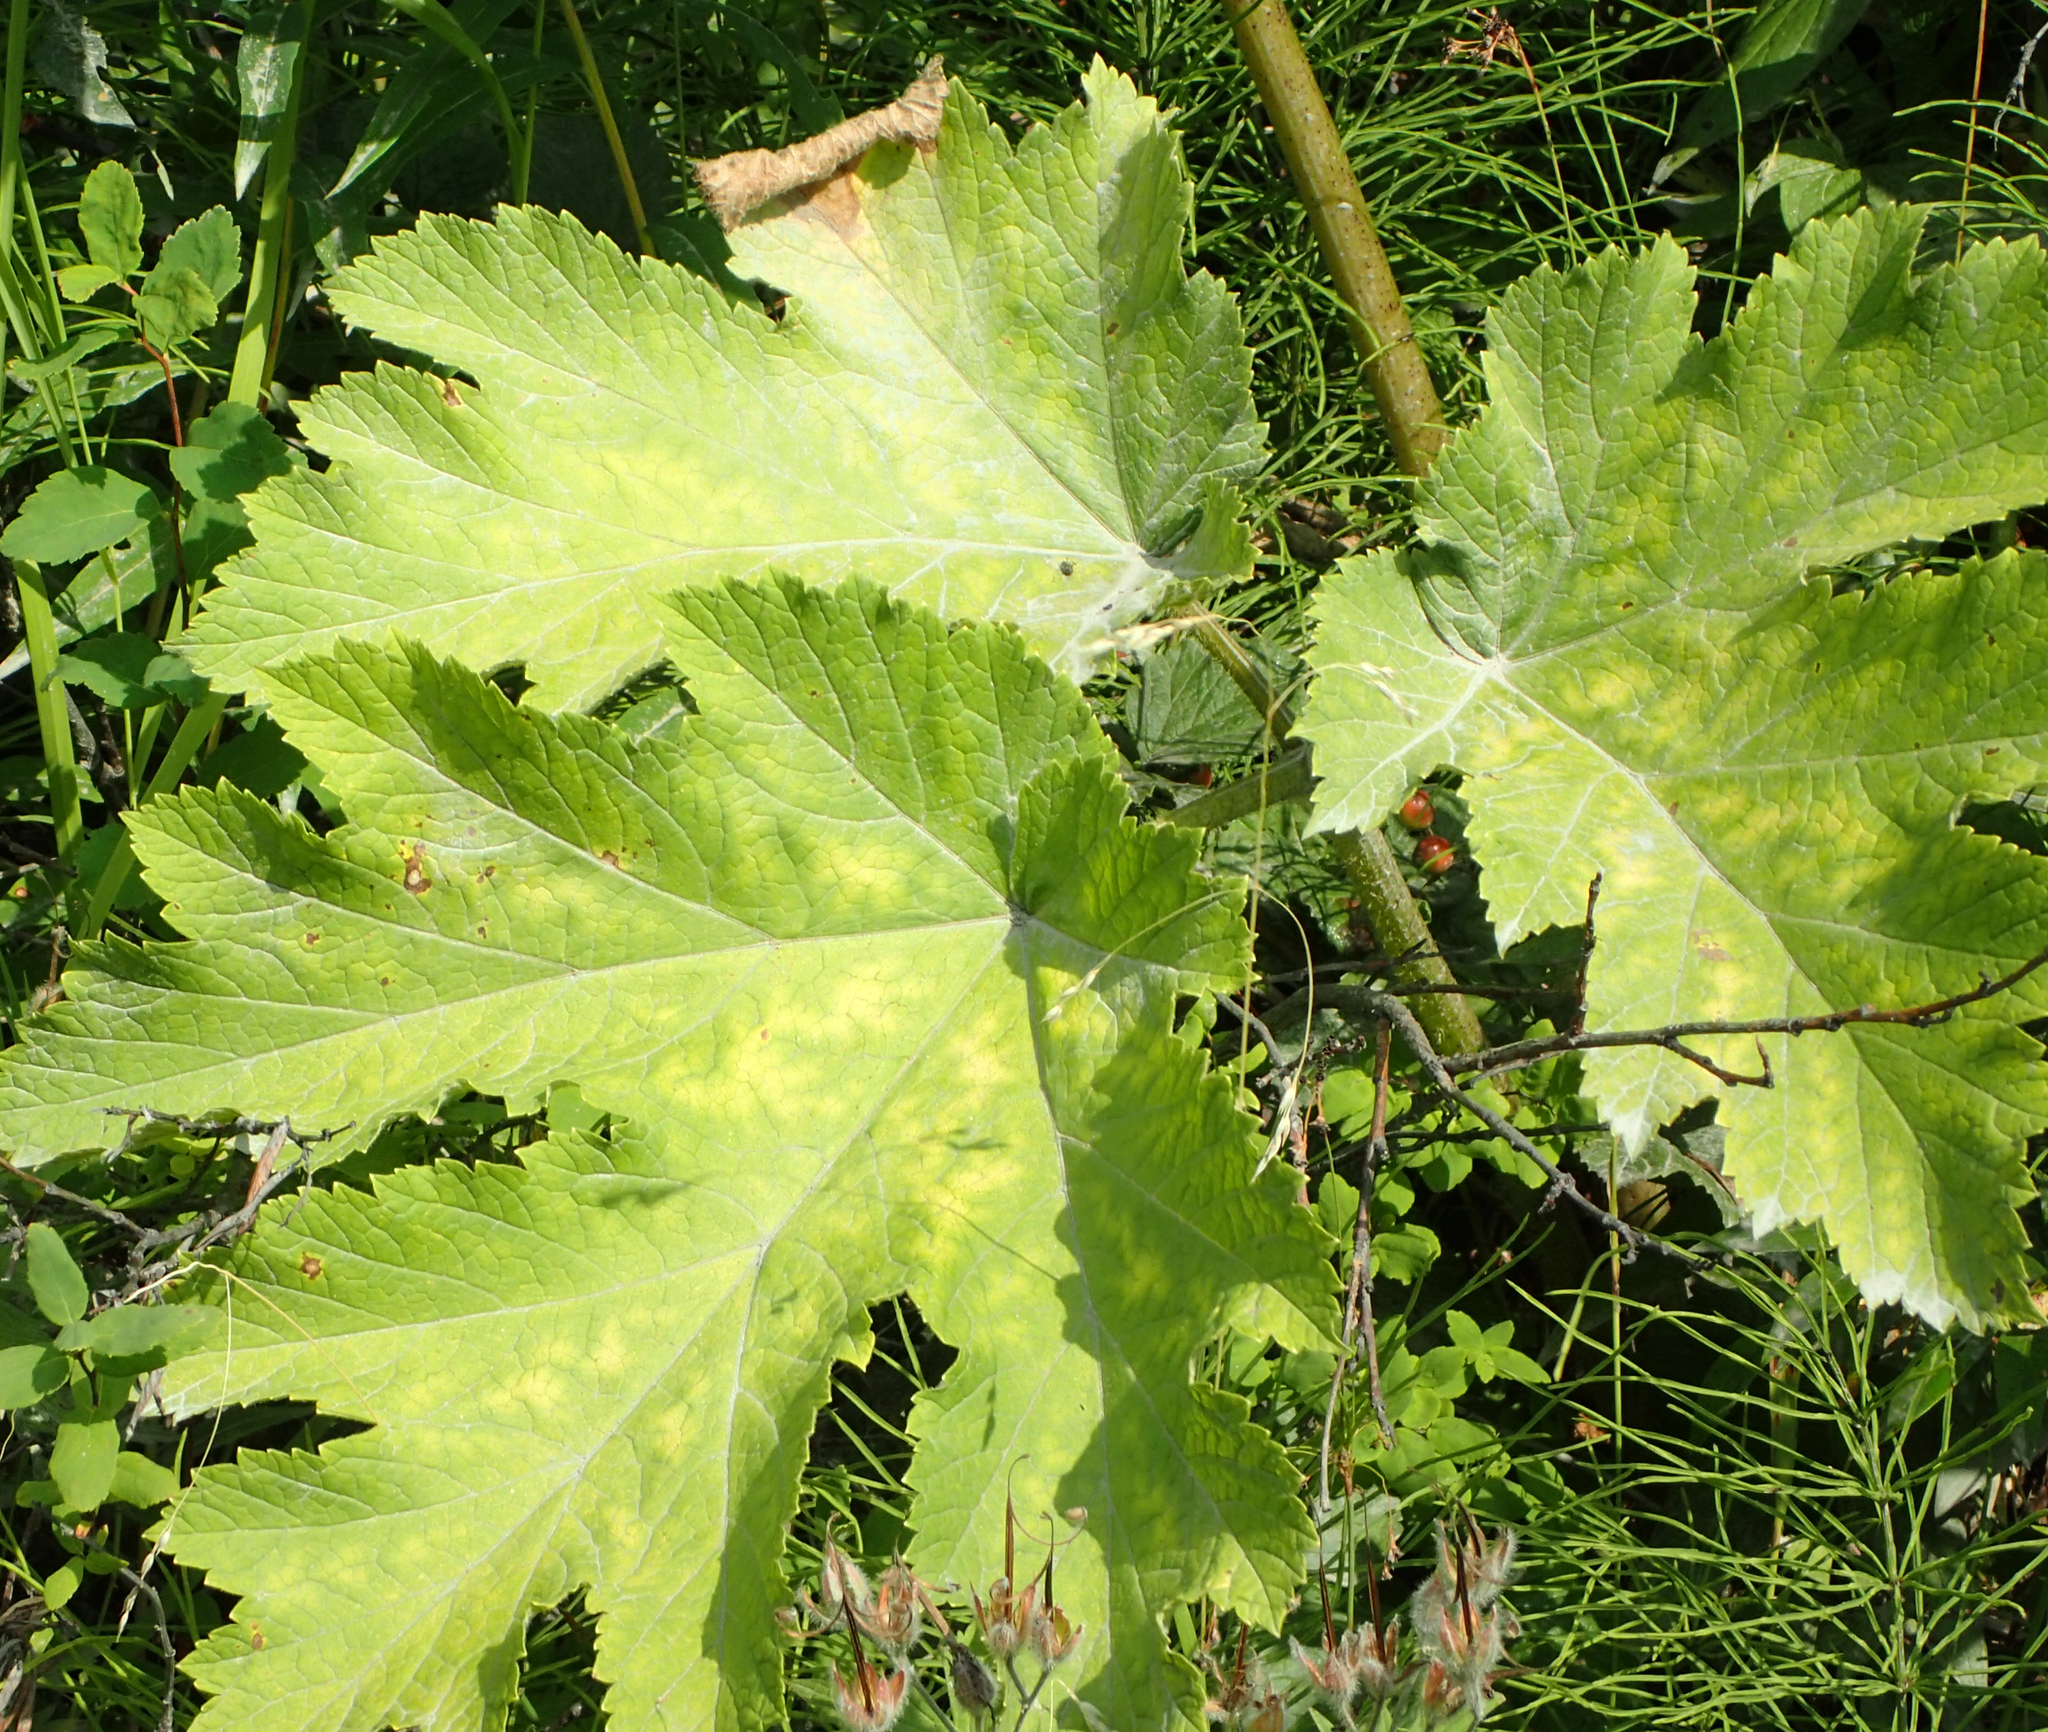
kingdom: Plantae
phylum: Tracheophyta
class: Magnoliopsida
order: Apiales
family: Apiaceae
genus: Heracleum
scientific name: Heracleum maximum
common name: American cow parsnip
